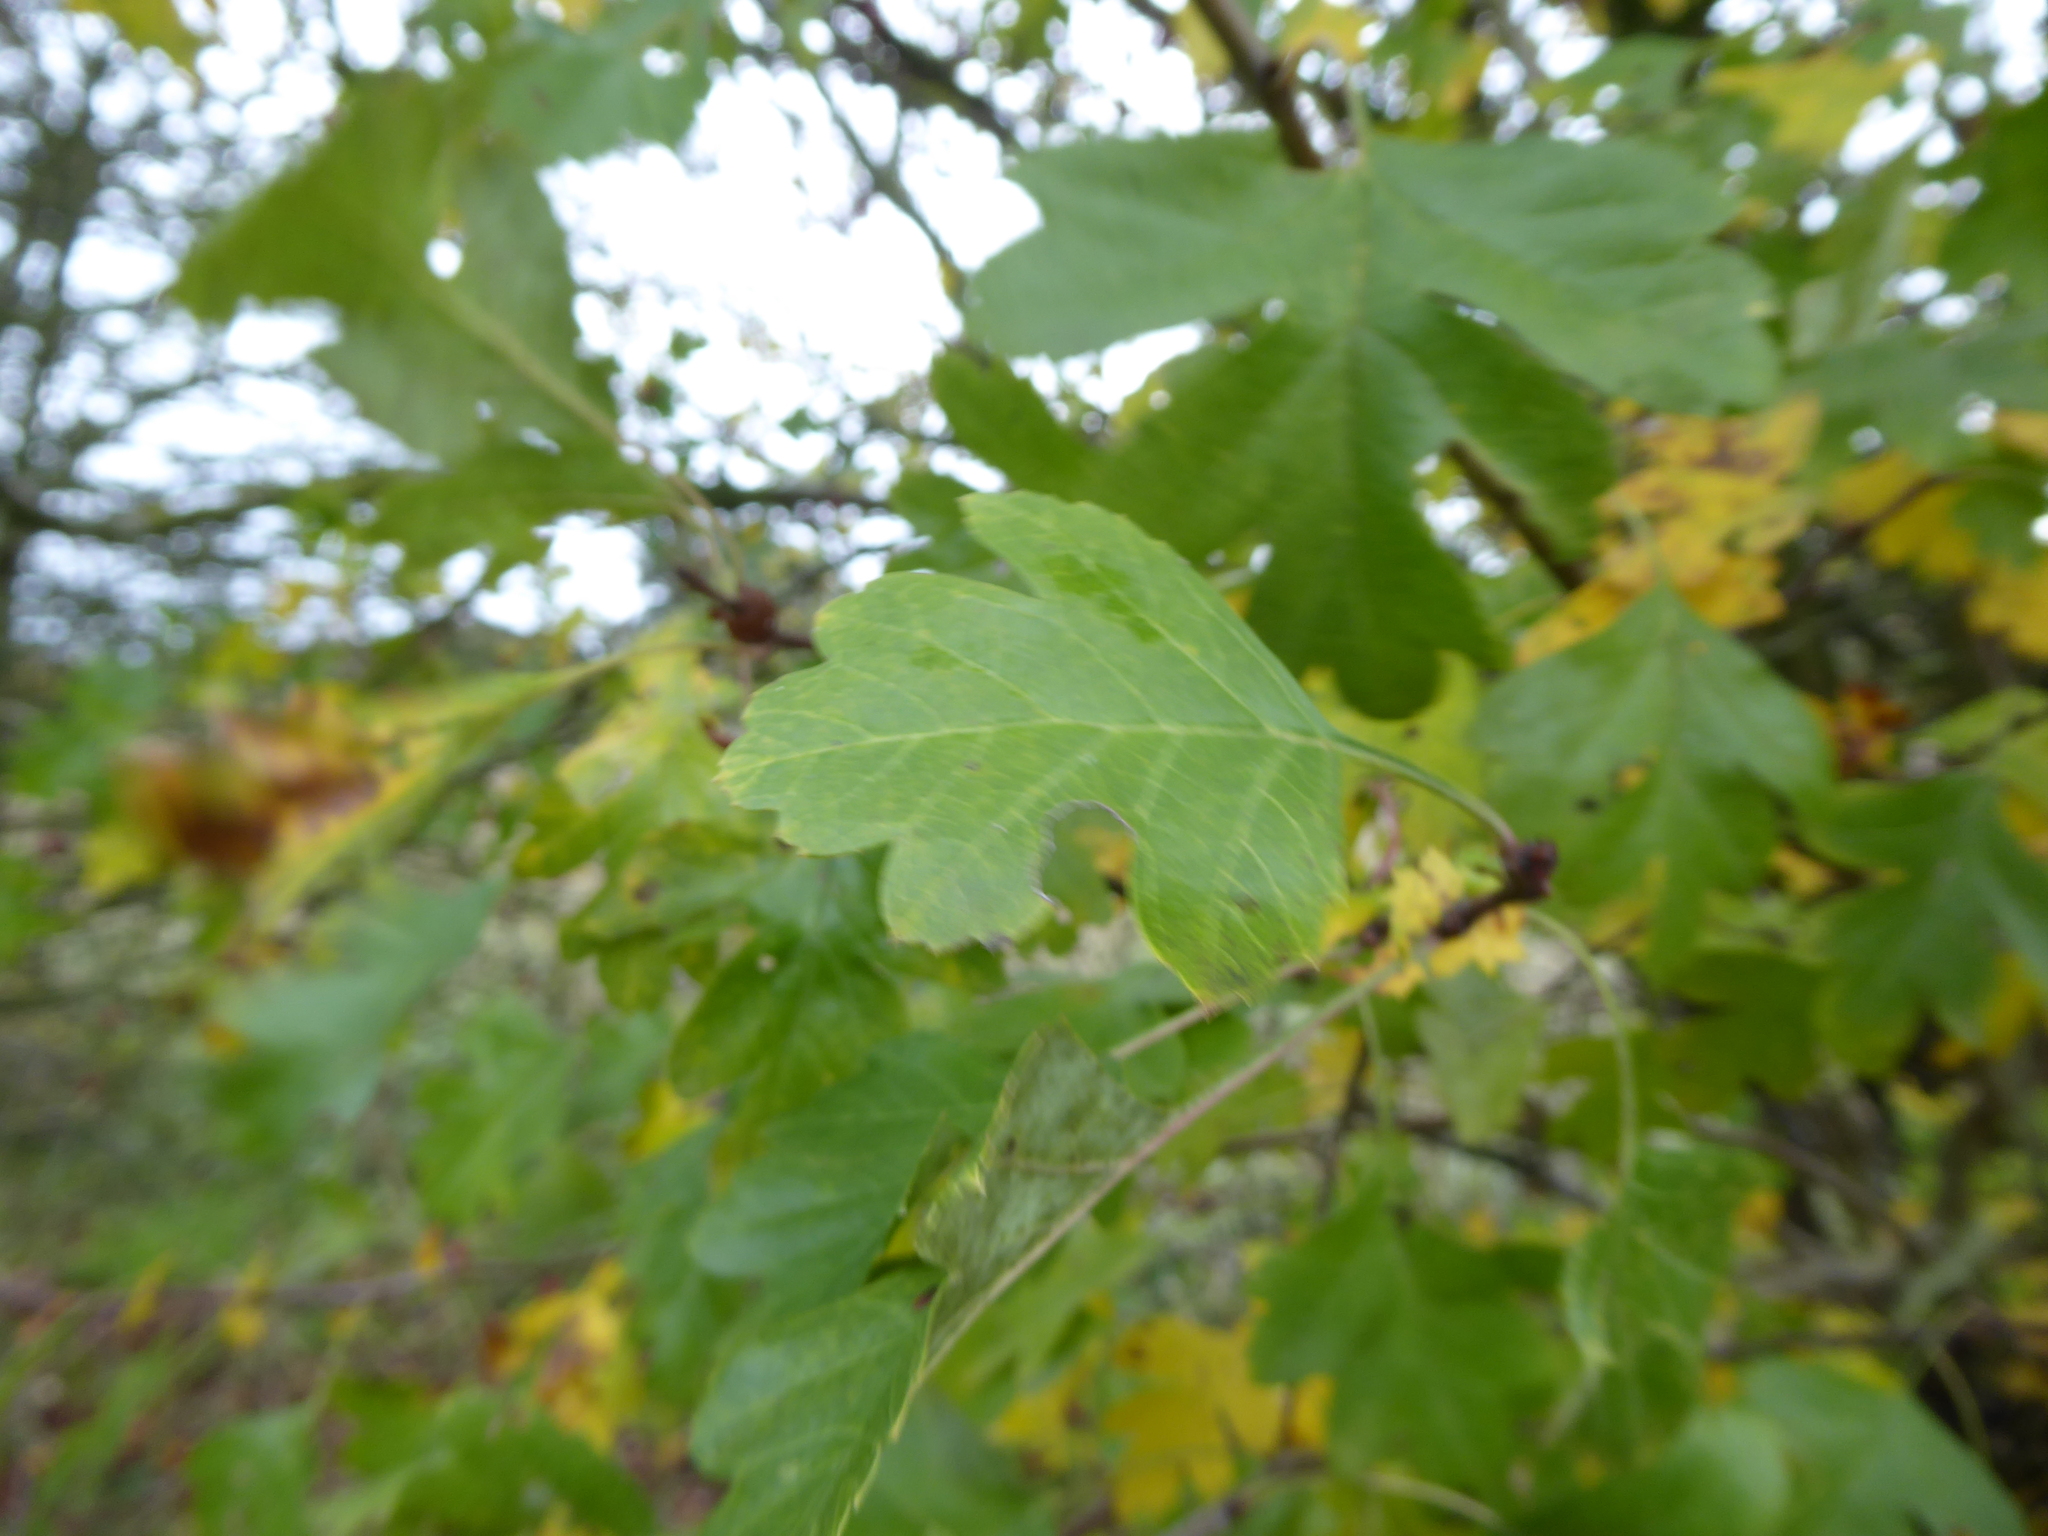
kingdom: Plantae
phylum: Tracheophyta
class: Magnoliopsida
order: Rosales
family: Rosaceae
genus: Crataegus
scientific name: Crataegus monogyna
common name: Hawthorn
